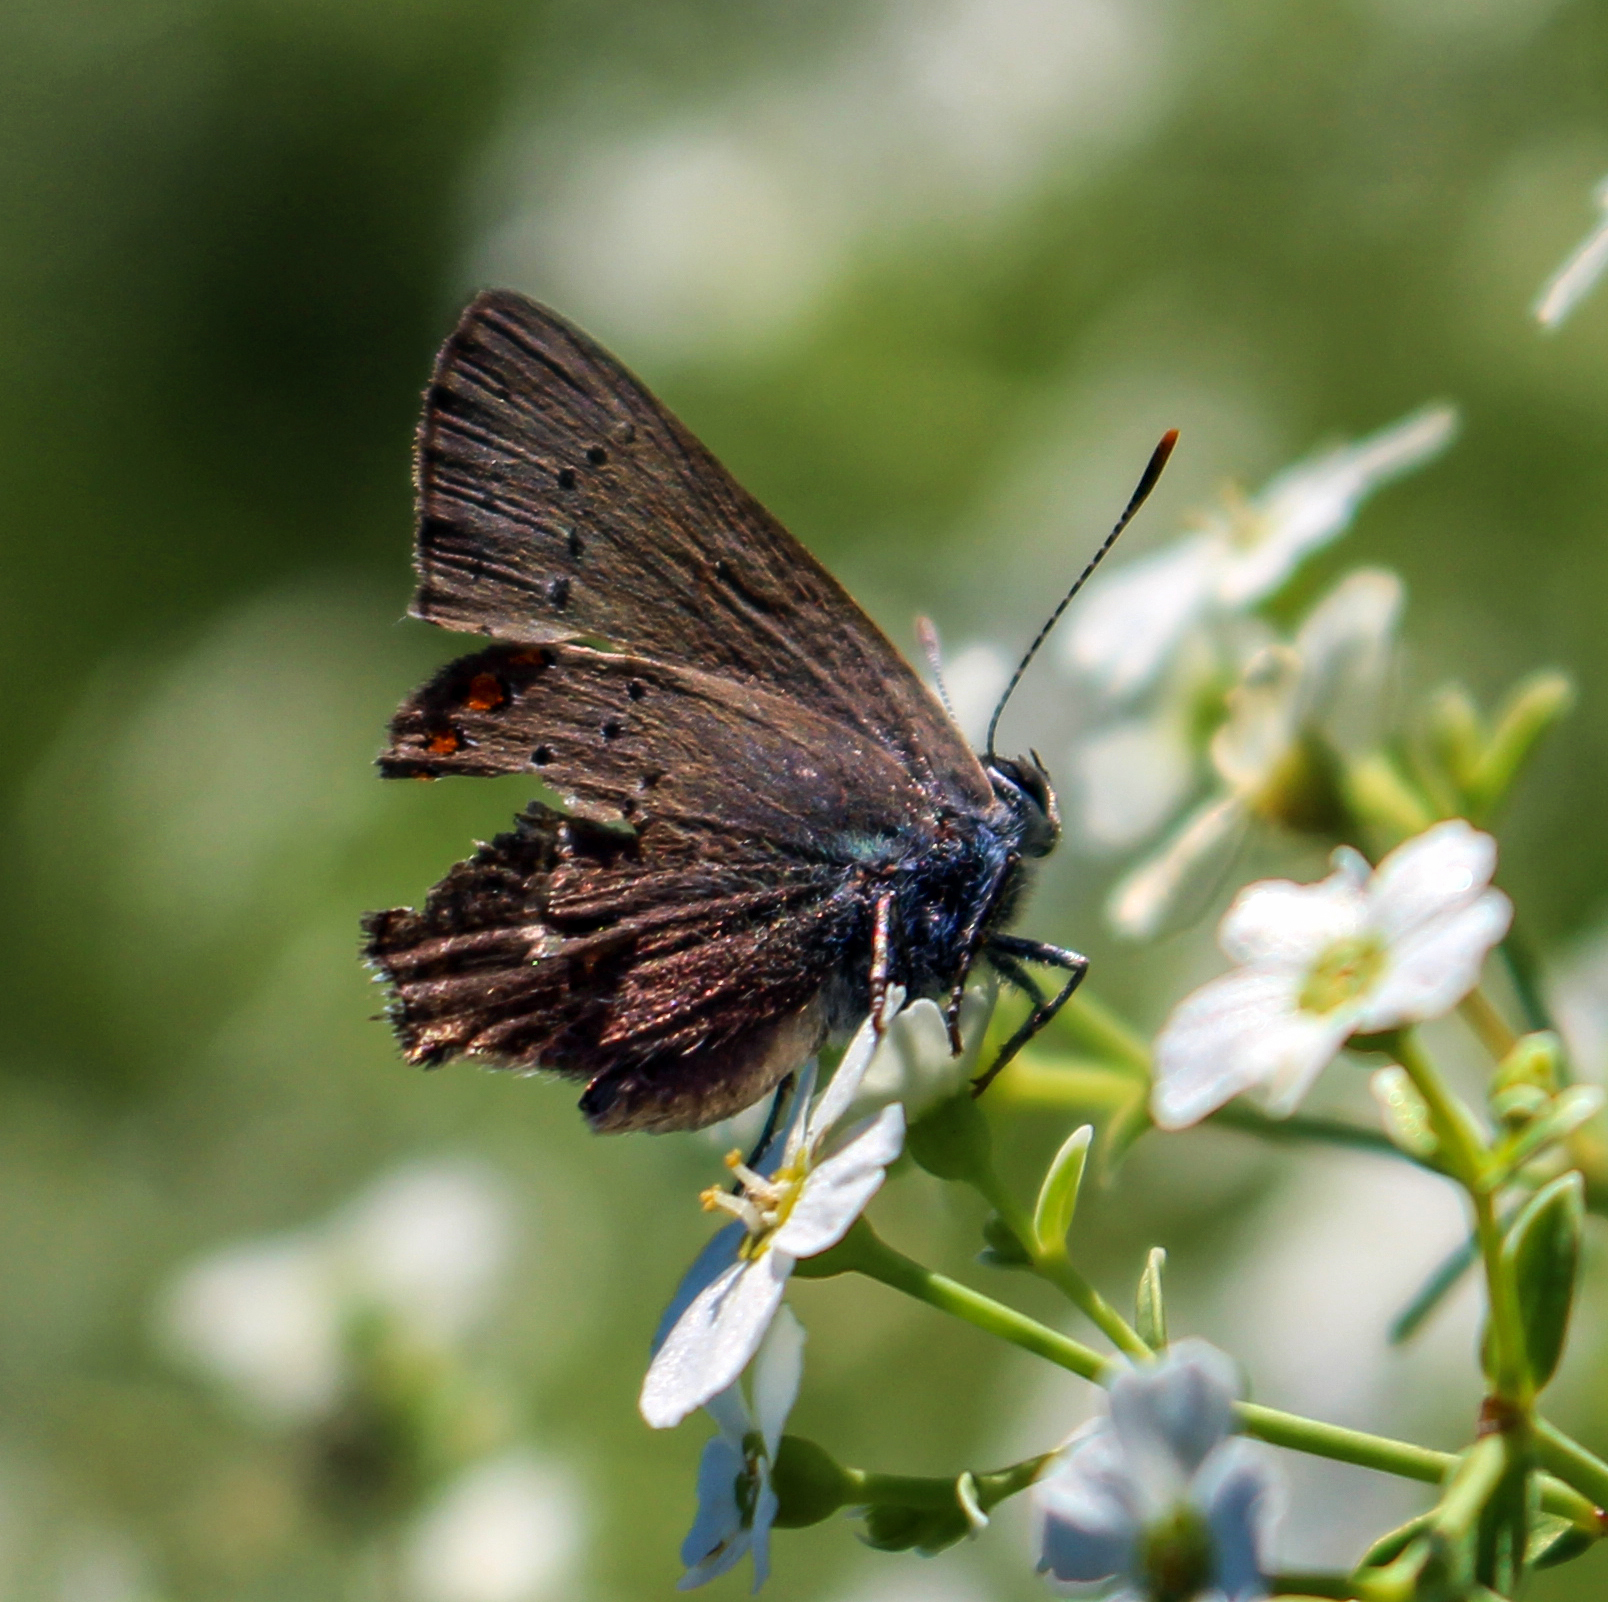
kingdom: Animalia
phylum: Arthropoda
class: Insecta
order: Lepidoptera
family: Lycaenidae
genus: Harkenclenus
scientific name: Harkenclenus titus
